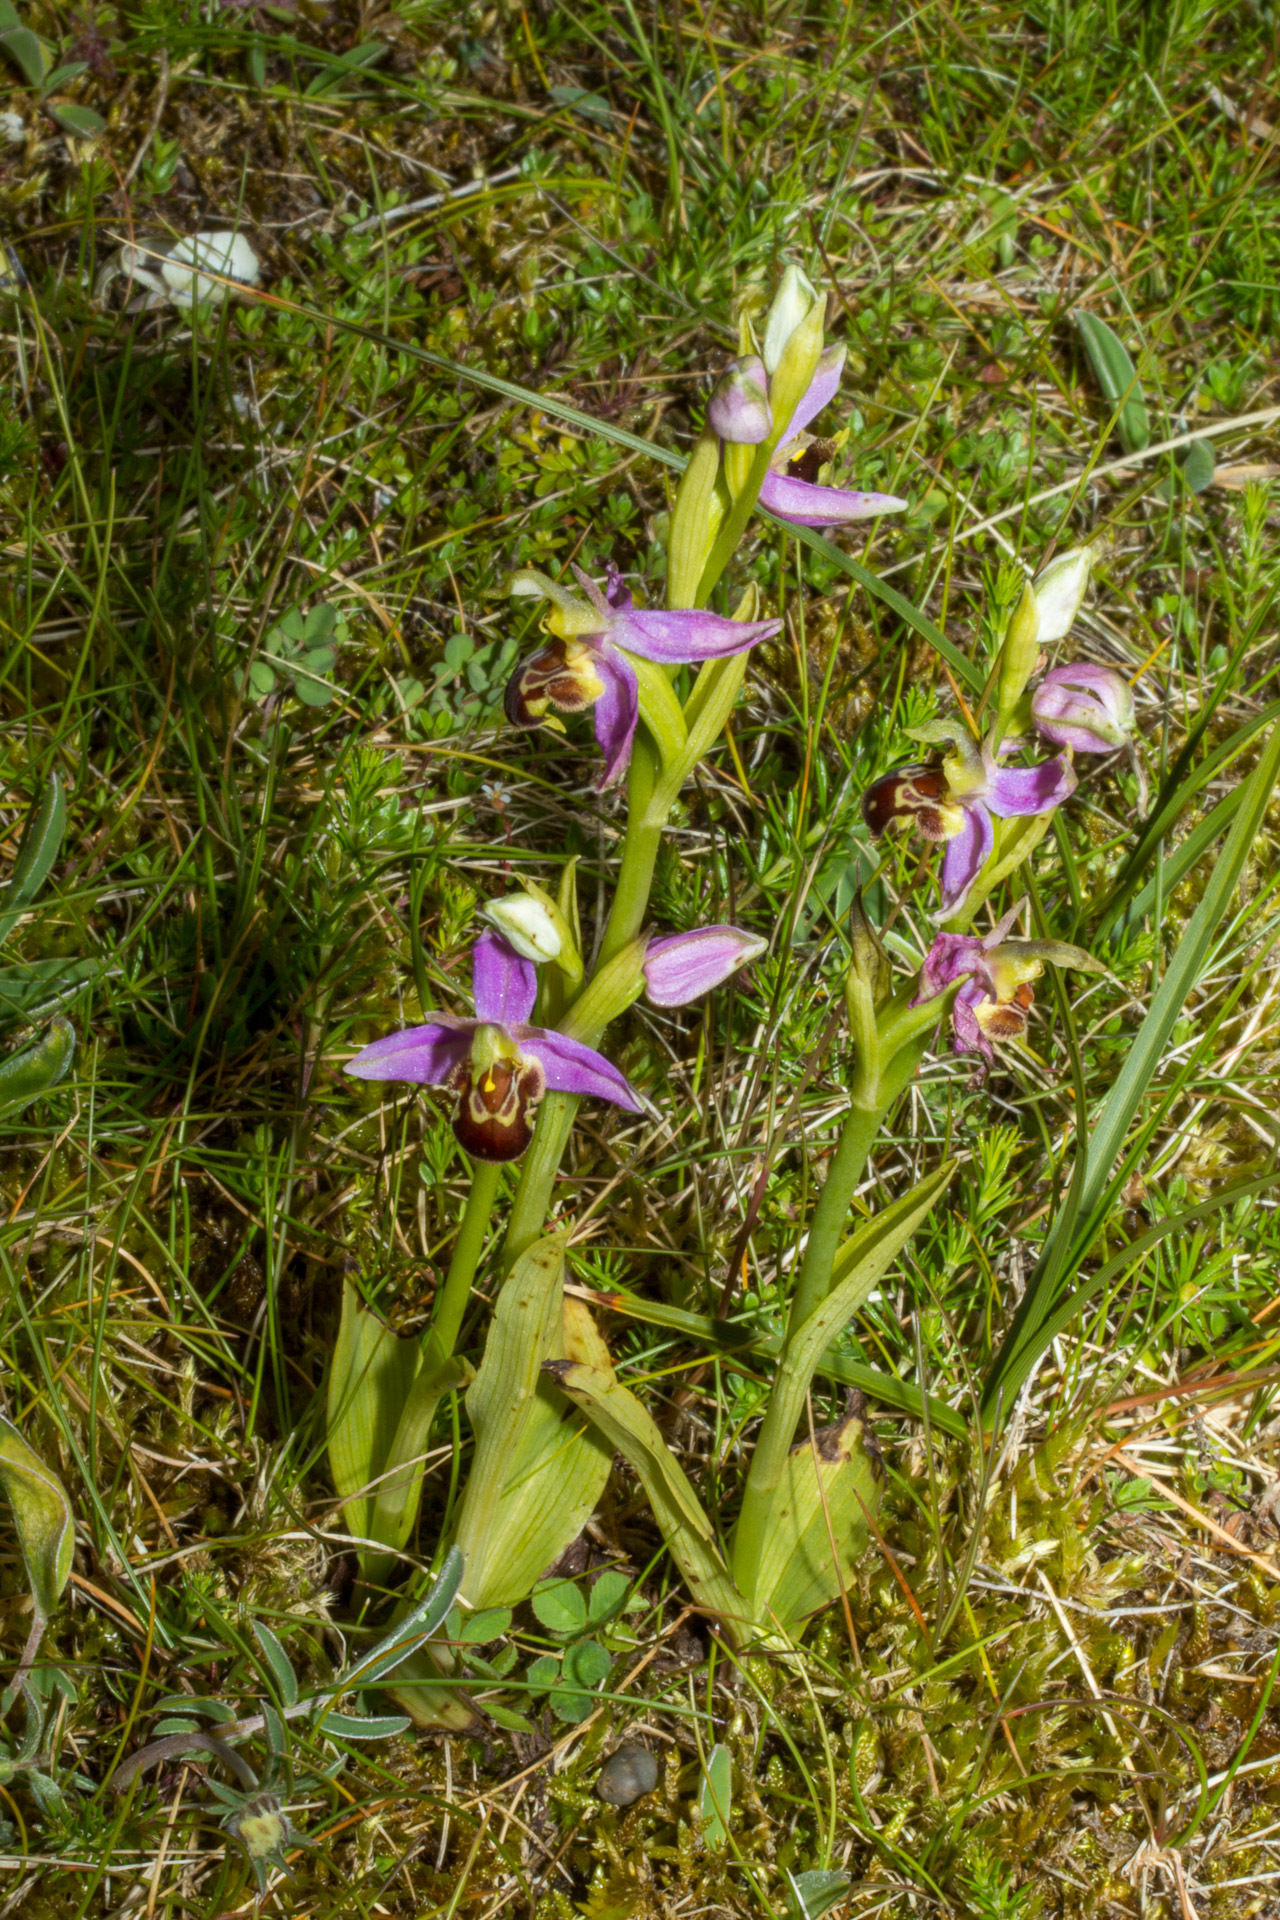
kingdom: Plantae
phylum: Tracheophyta
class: Liliopsida
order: Asparagales
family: Orchidaceae
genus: Ophrys
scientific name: Ophrys apifera
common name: Bee orchid
